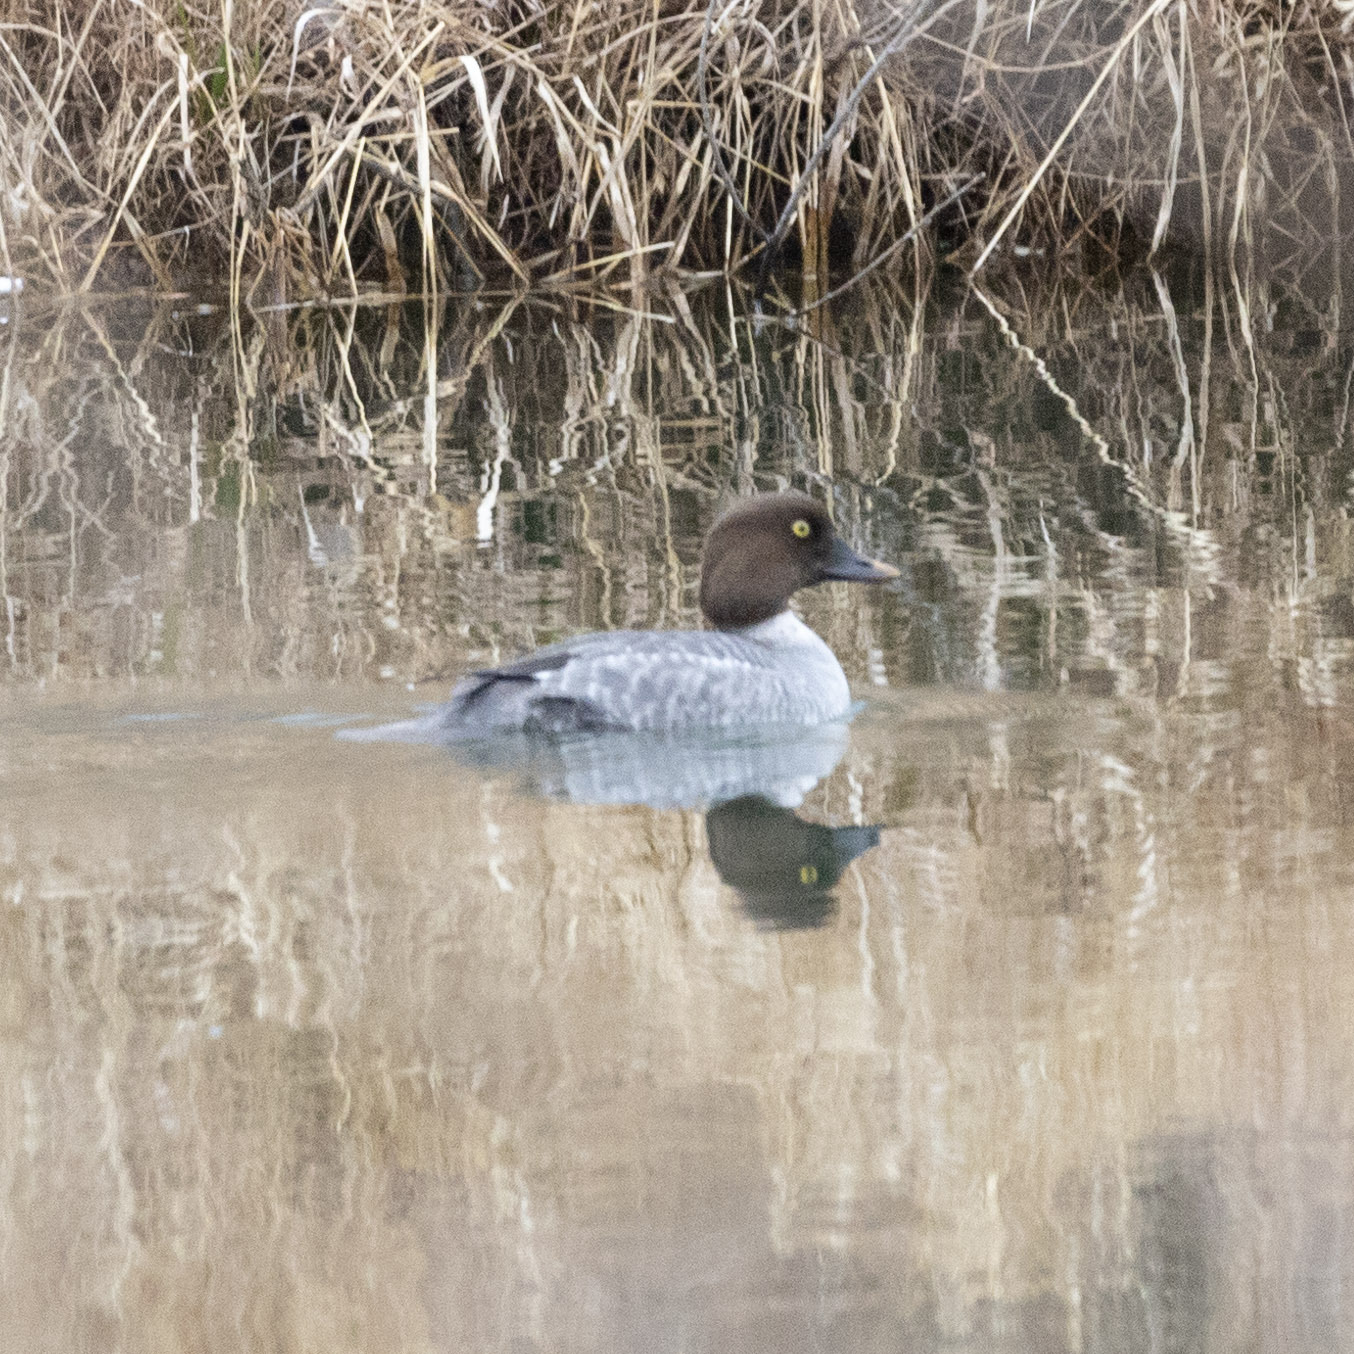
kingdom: Animalia
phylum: Chordata
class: Aves
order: Anseriformes
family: Anatidae
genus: Bucephala
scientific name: Bucephala clangula
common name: Common goldeneye
